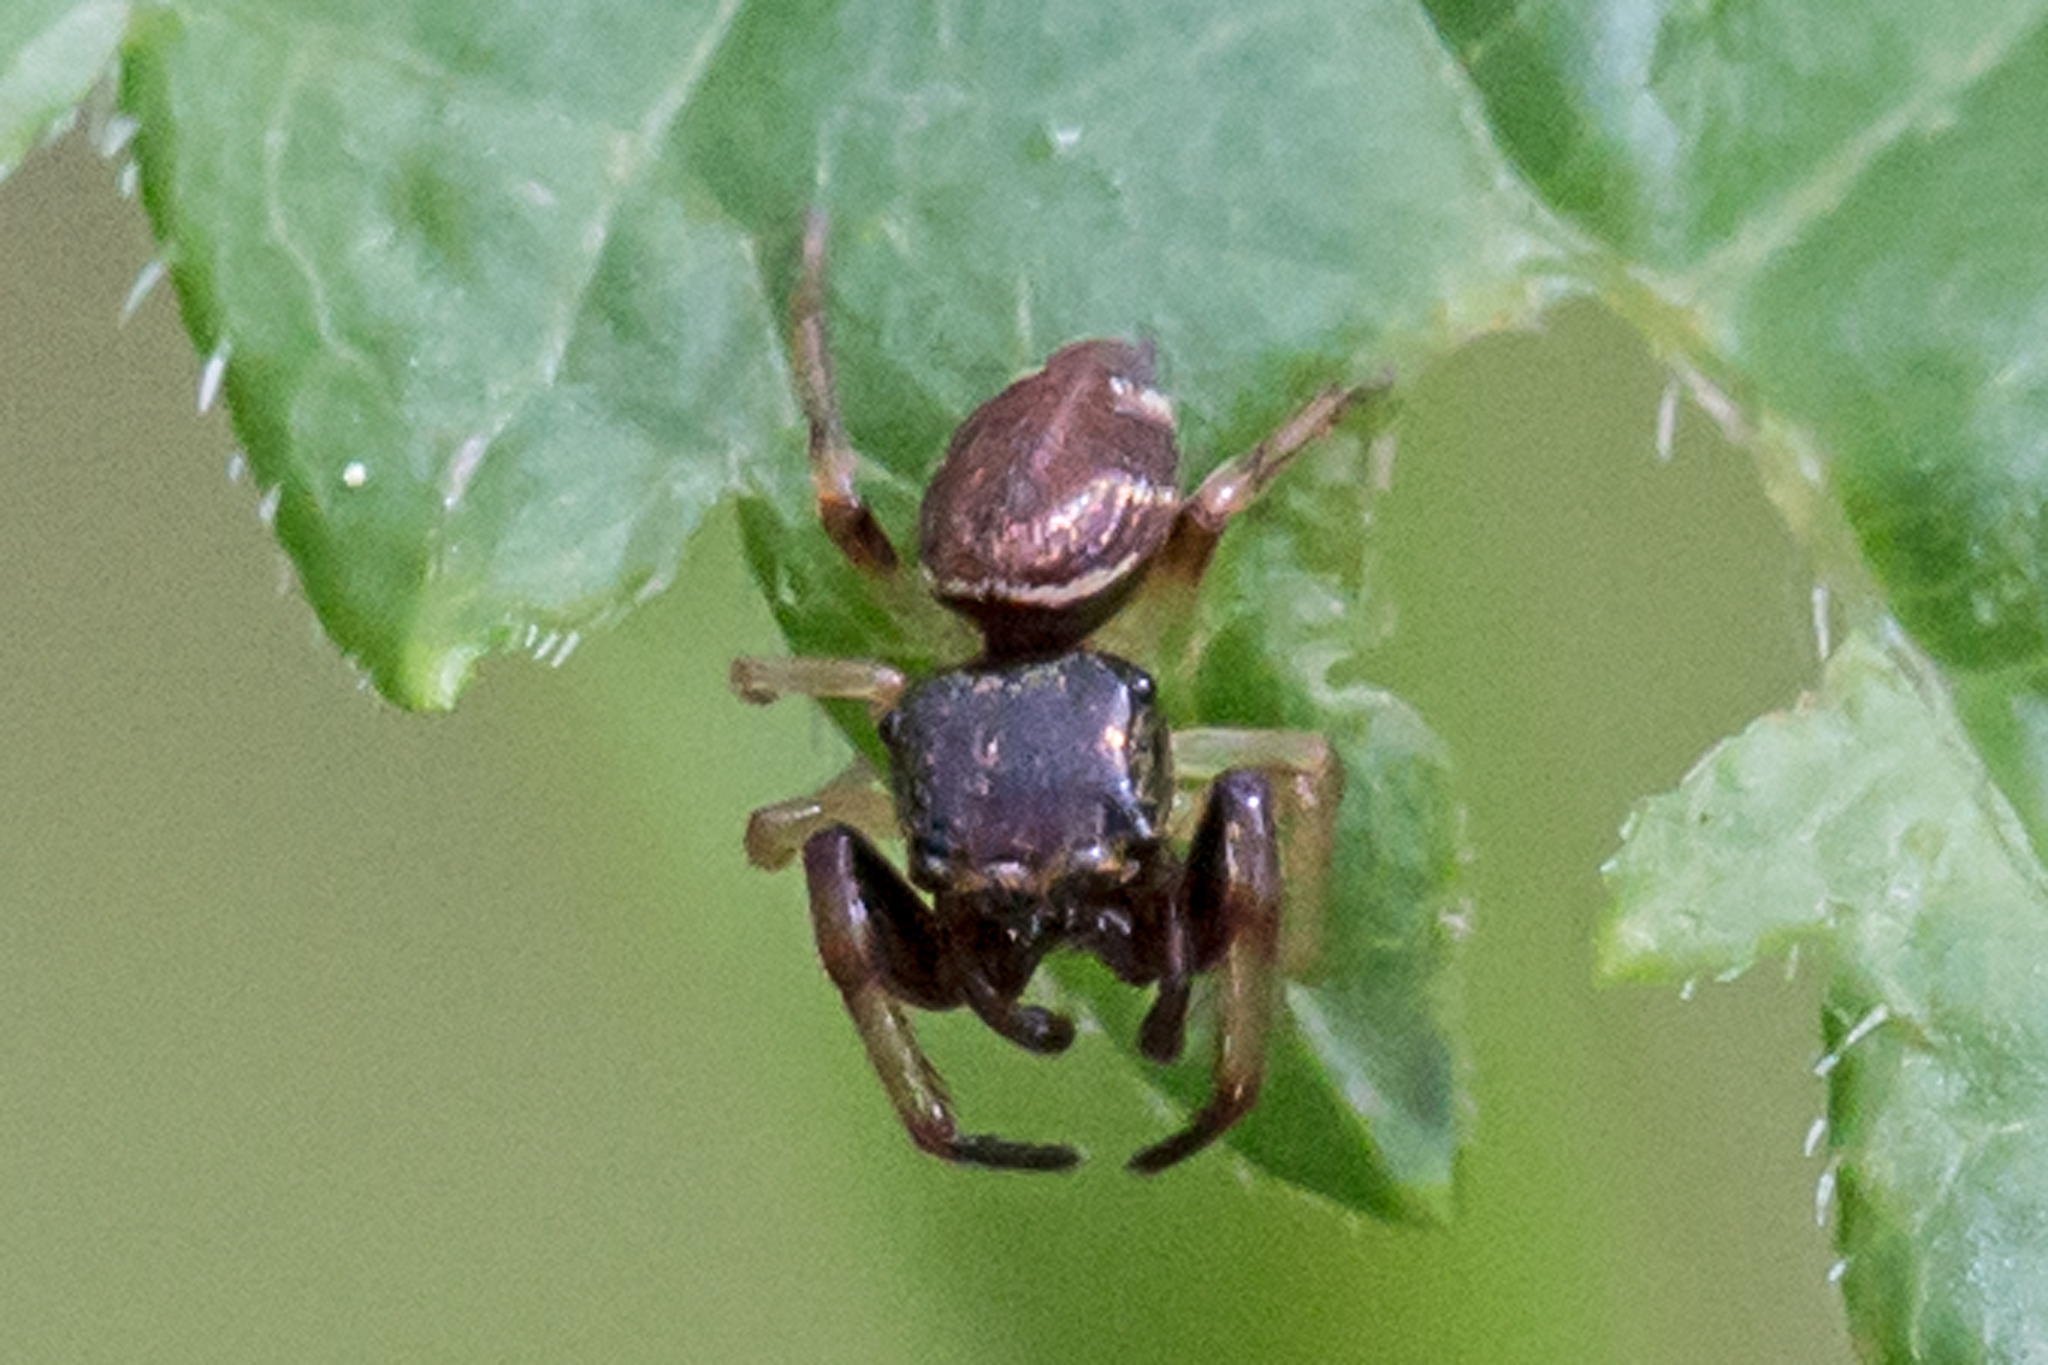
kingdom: Animalia
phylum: Arthropoda
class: Arachnida
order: Araneae
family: Salticidae
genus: Zygoballus
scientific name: Zygoballus rufipes
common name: Jumping spiders
